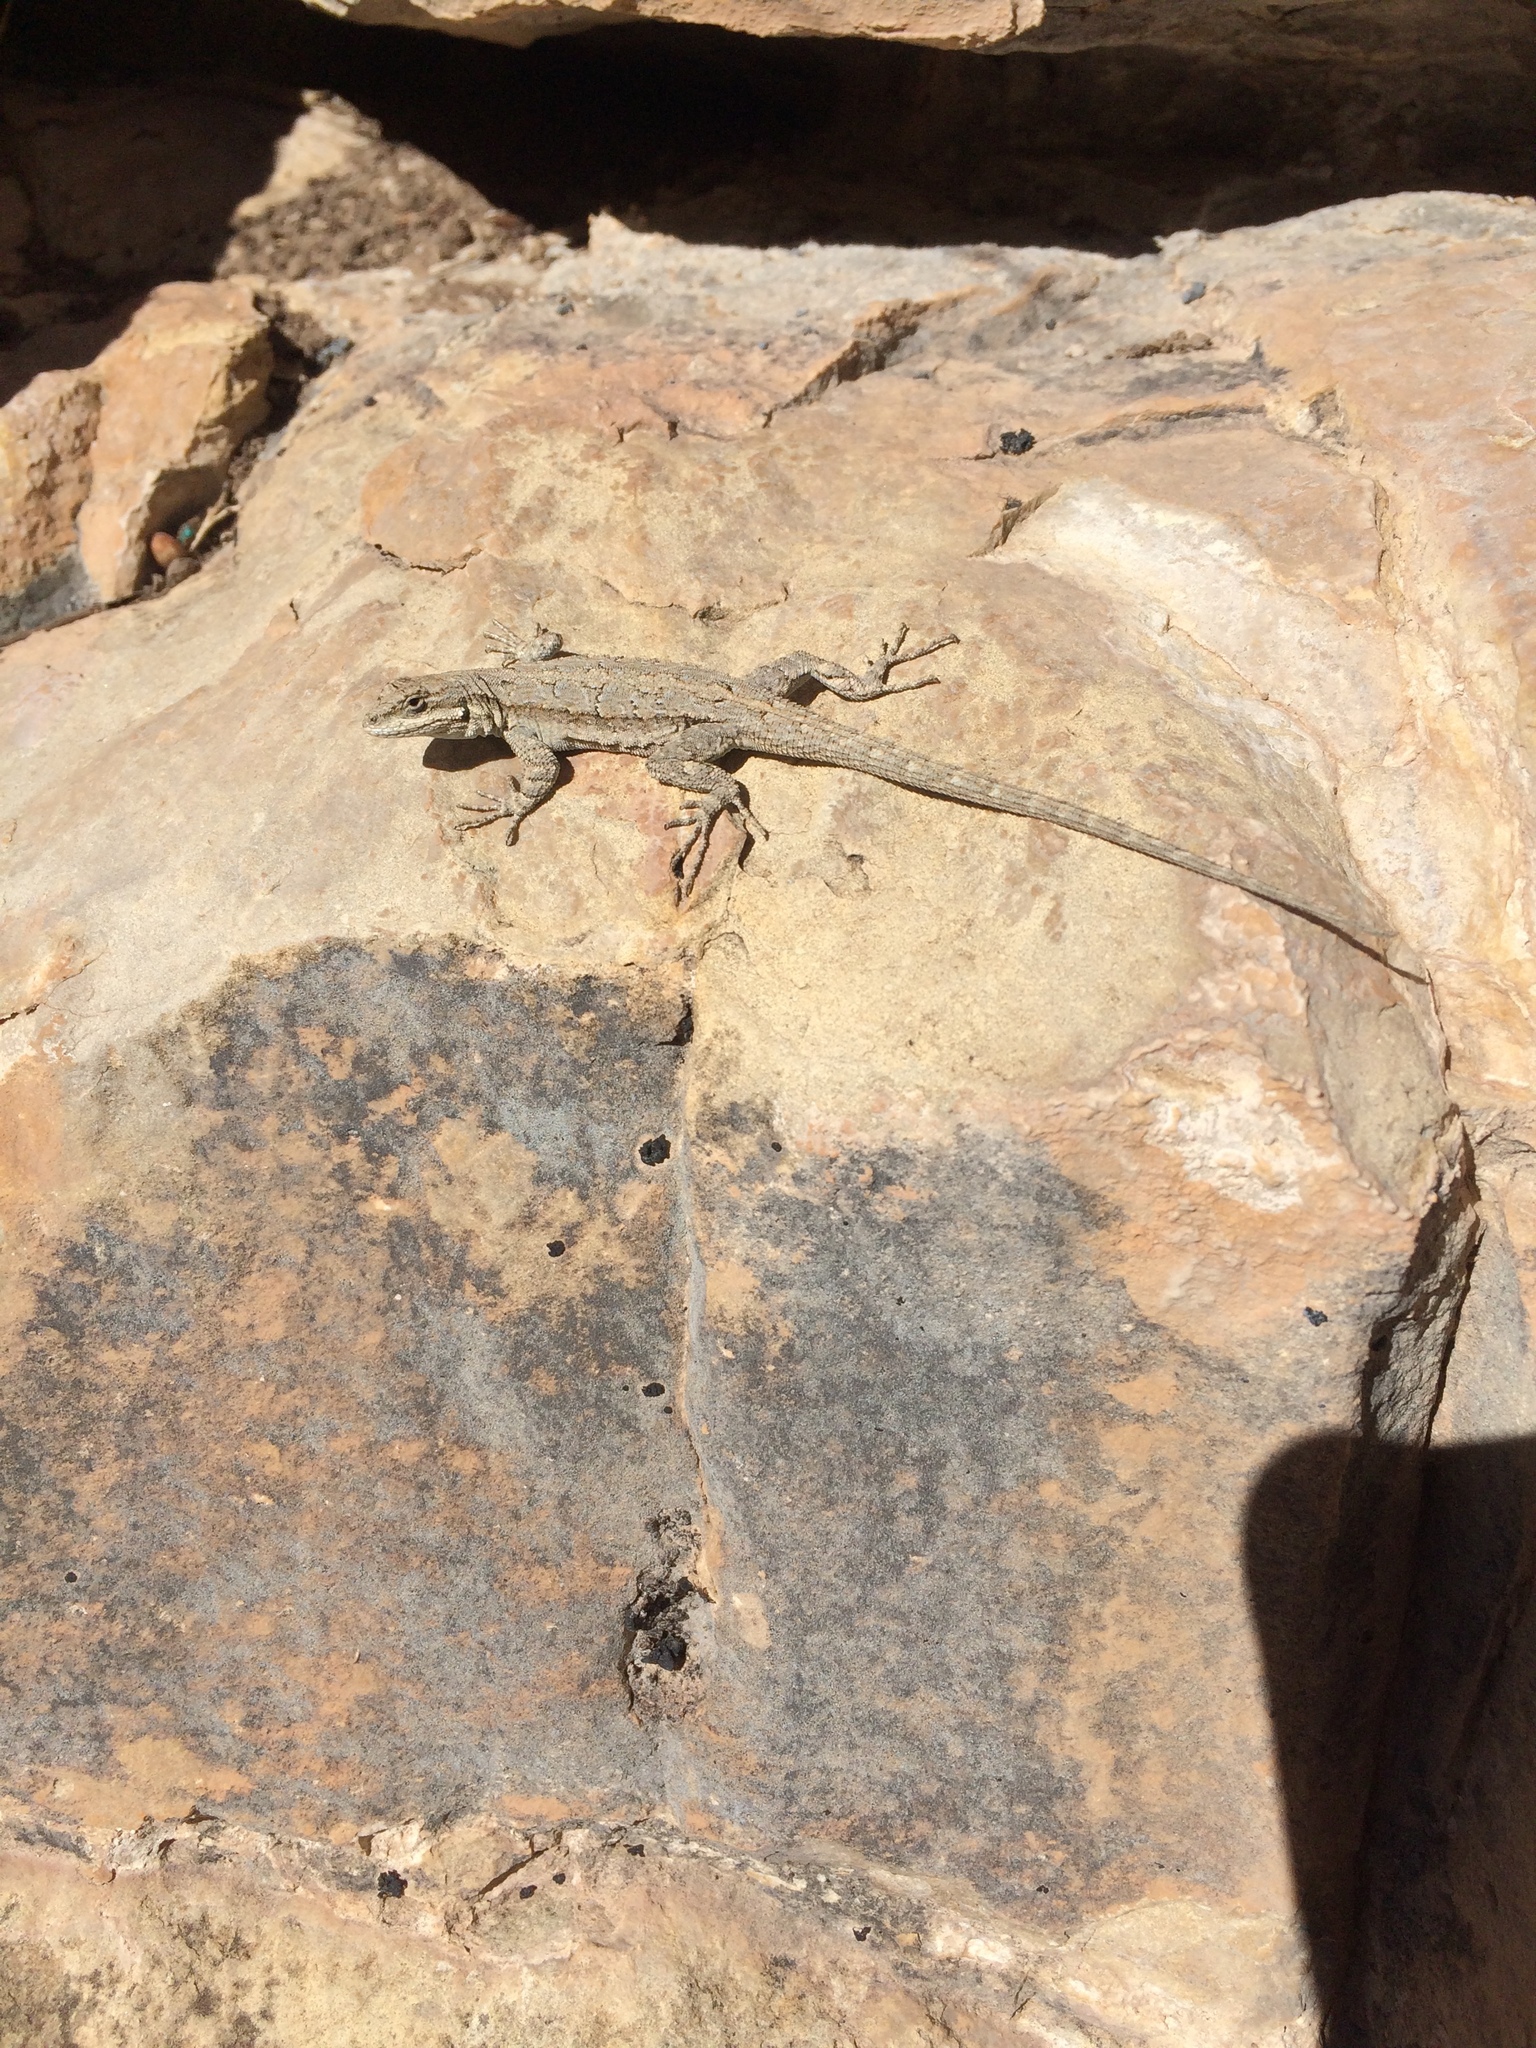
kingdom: Animalia
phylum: Chordata
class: Squamata
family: Phrynosomatidae
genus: Urosaurus
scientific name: Urosaurus ornatus
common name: Ornate tree lizard
